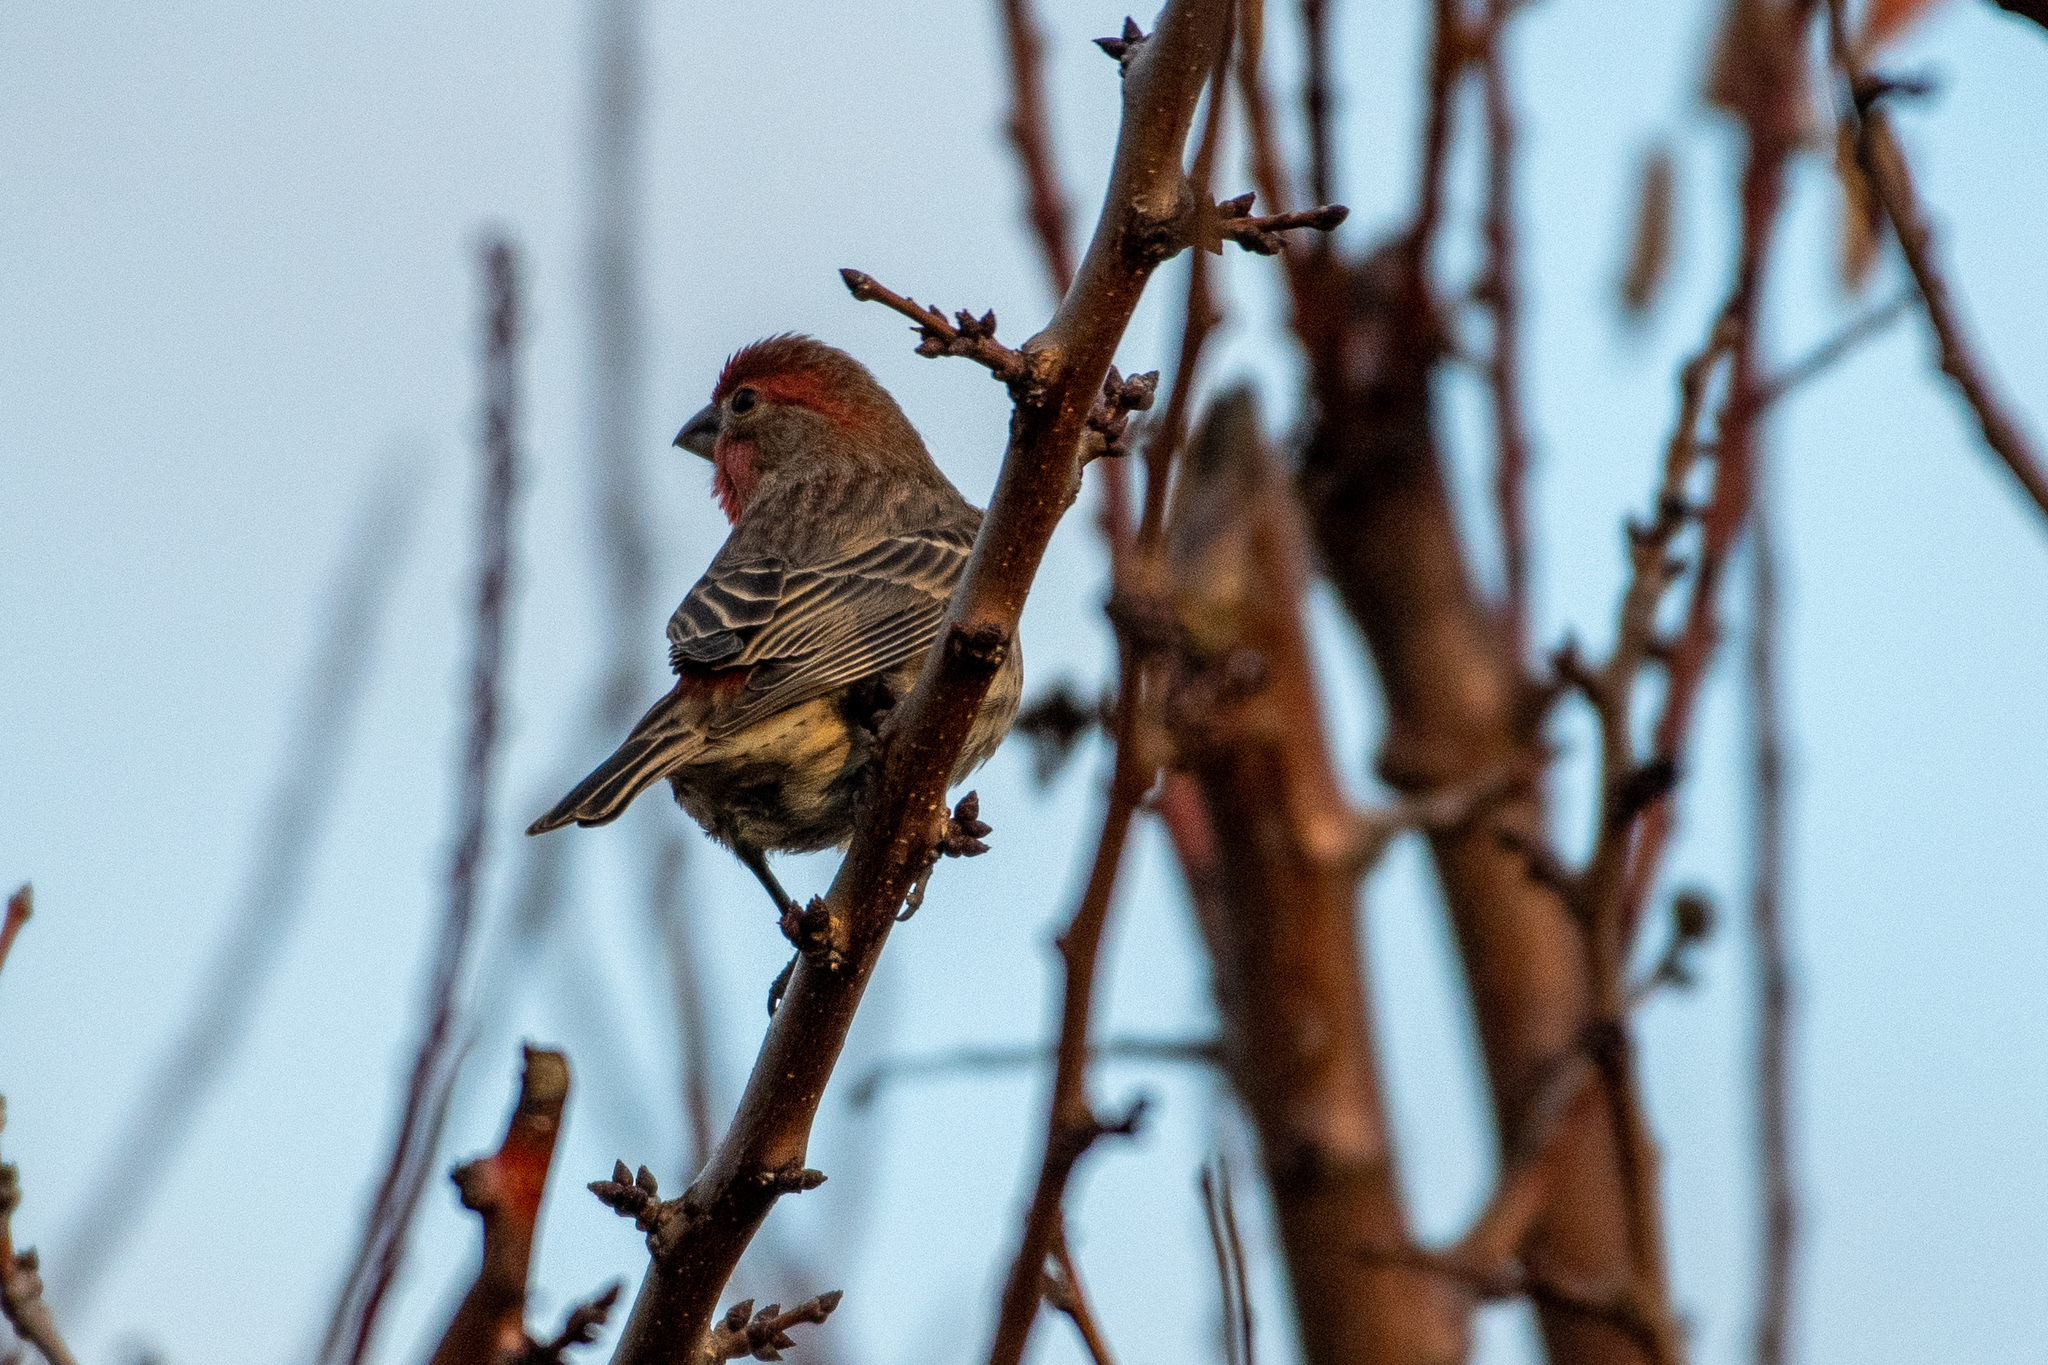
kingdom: Animalia
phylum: Chordata
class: Aves
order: Passeriformes
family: Fringillidae
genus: Haemorhous
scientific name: Haemorhous mexicanus
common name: House finch
